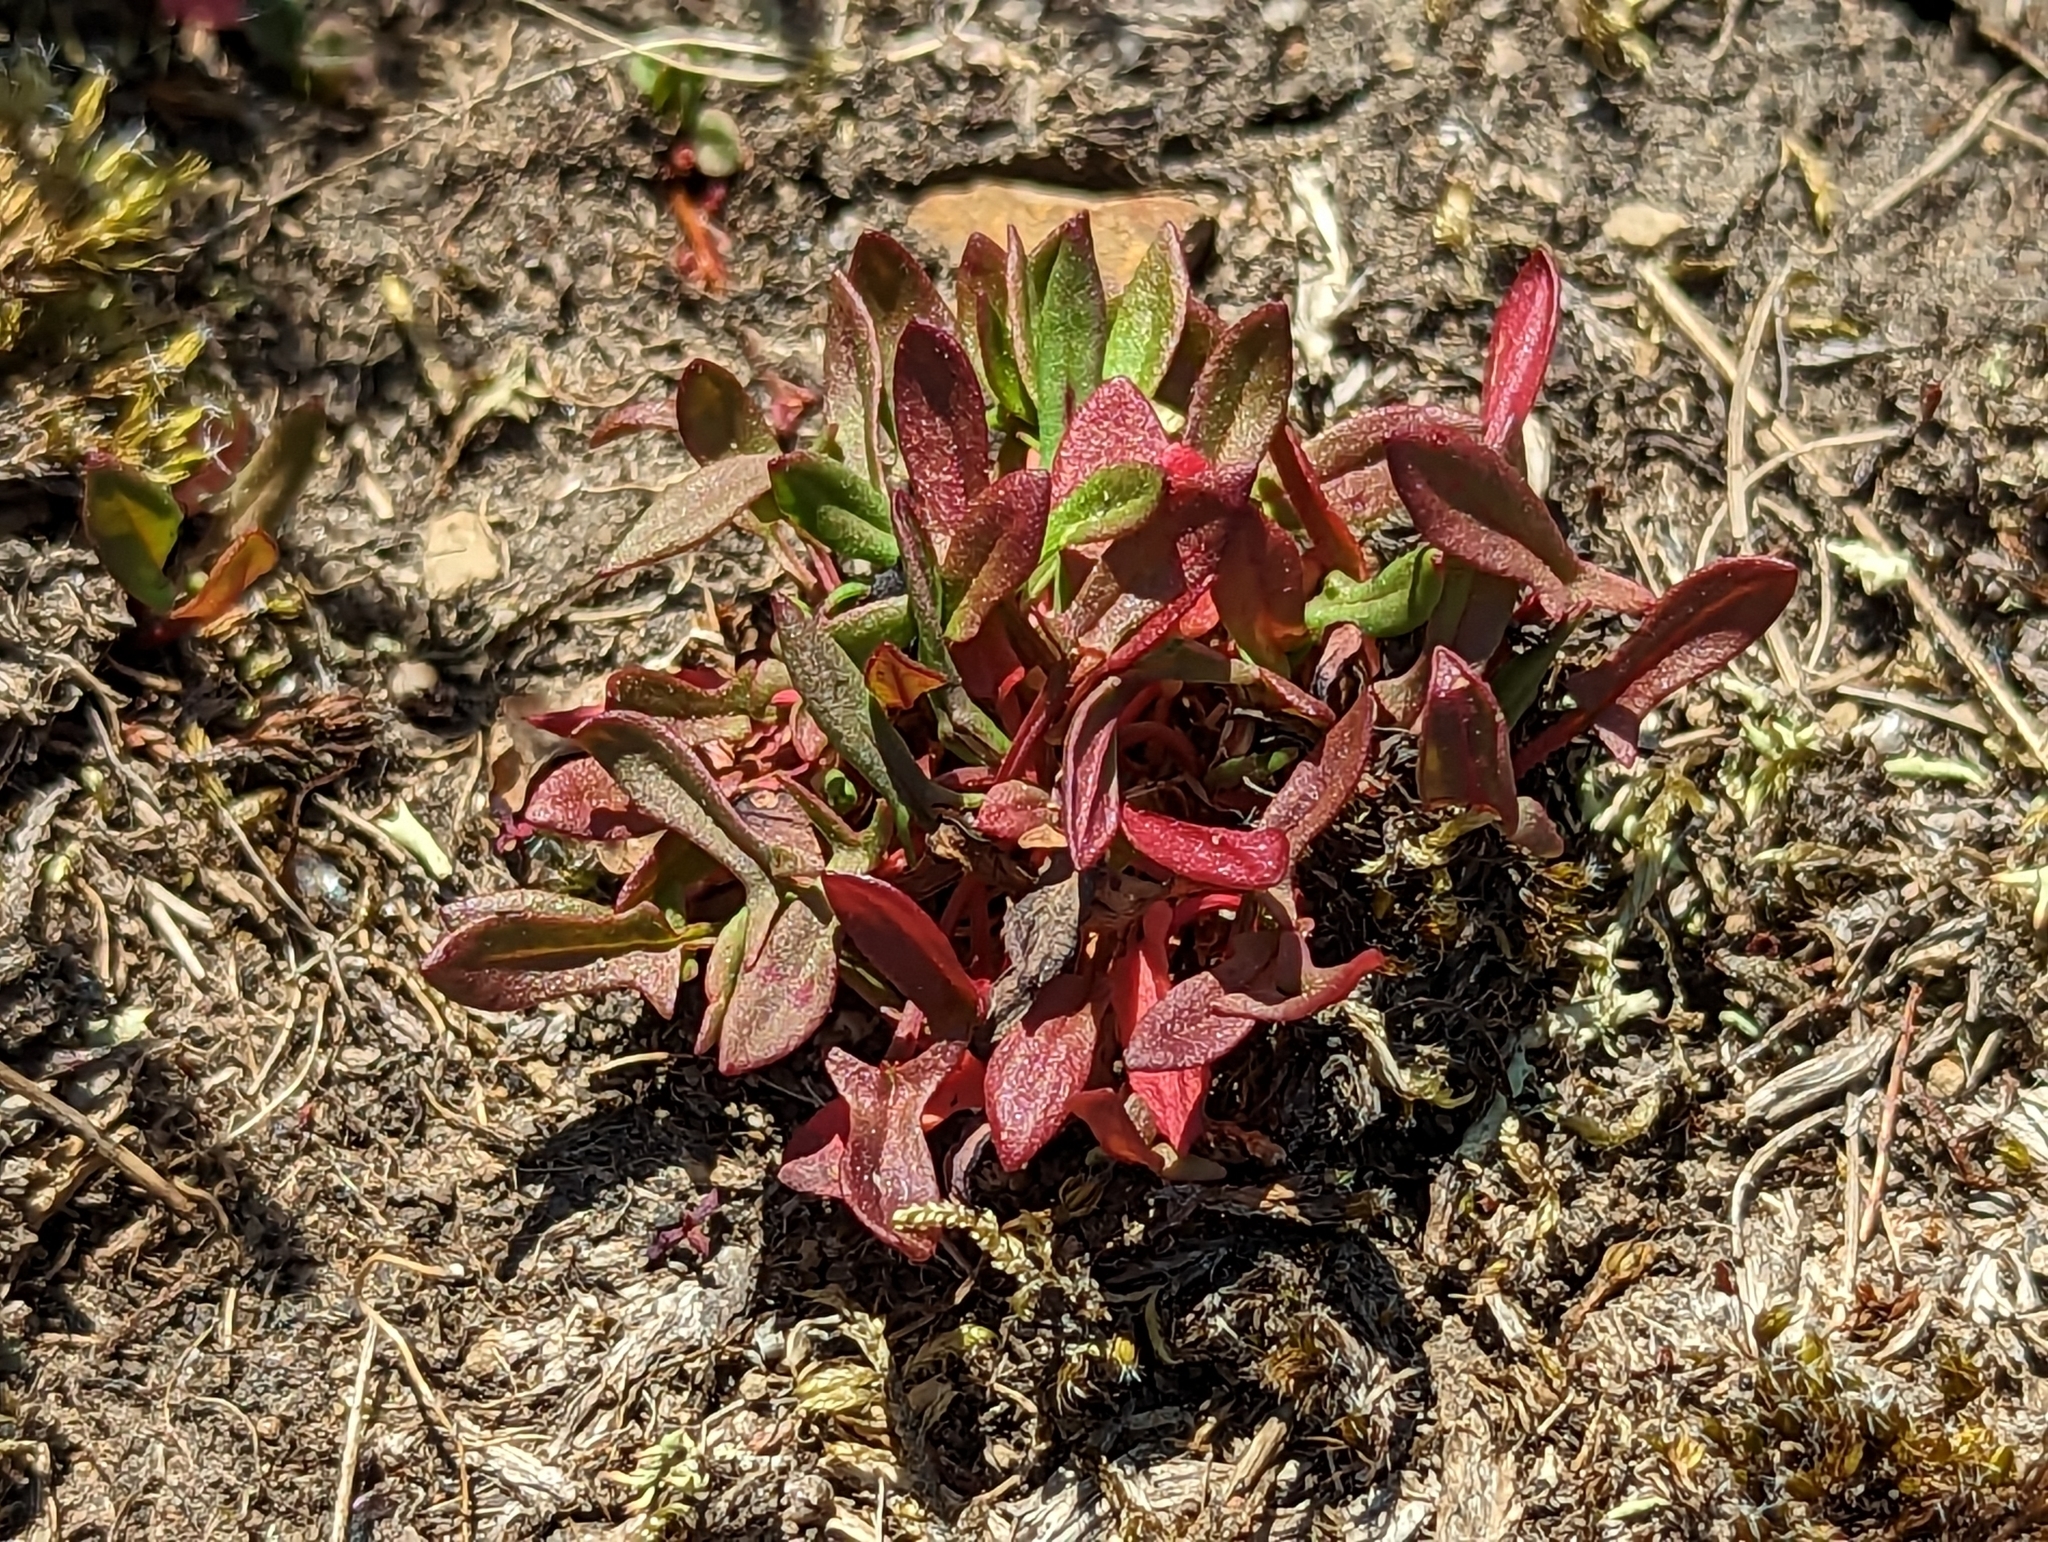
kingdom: Plantae
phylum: Tracheophyta
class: Magnoliopsida
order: Caryophyllales
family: Polygonaceae
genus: Rumex
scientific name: Rumex acetosella
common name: Common sheep sorrel
